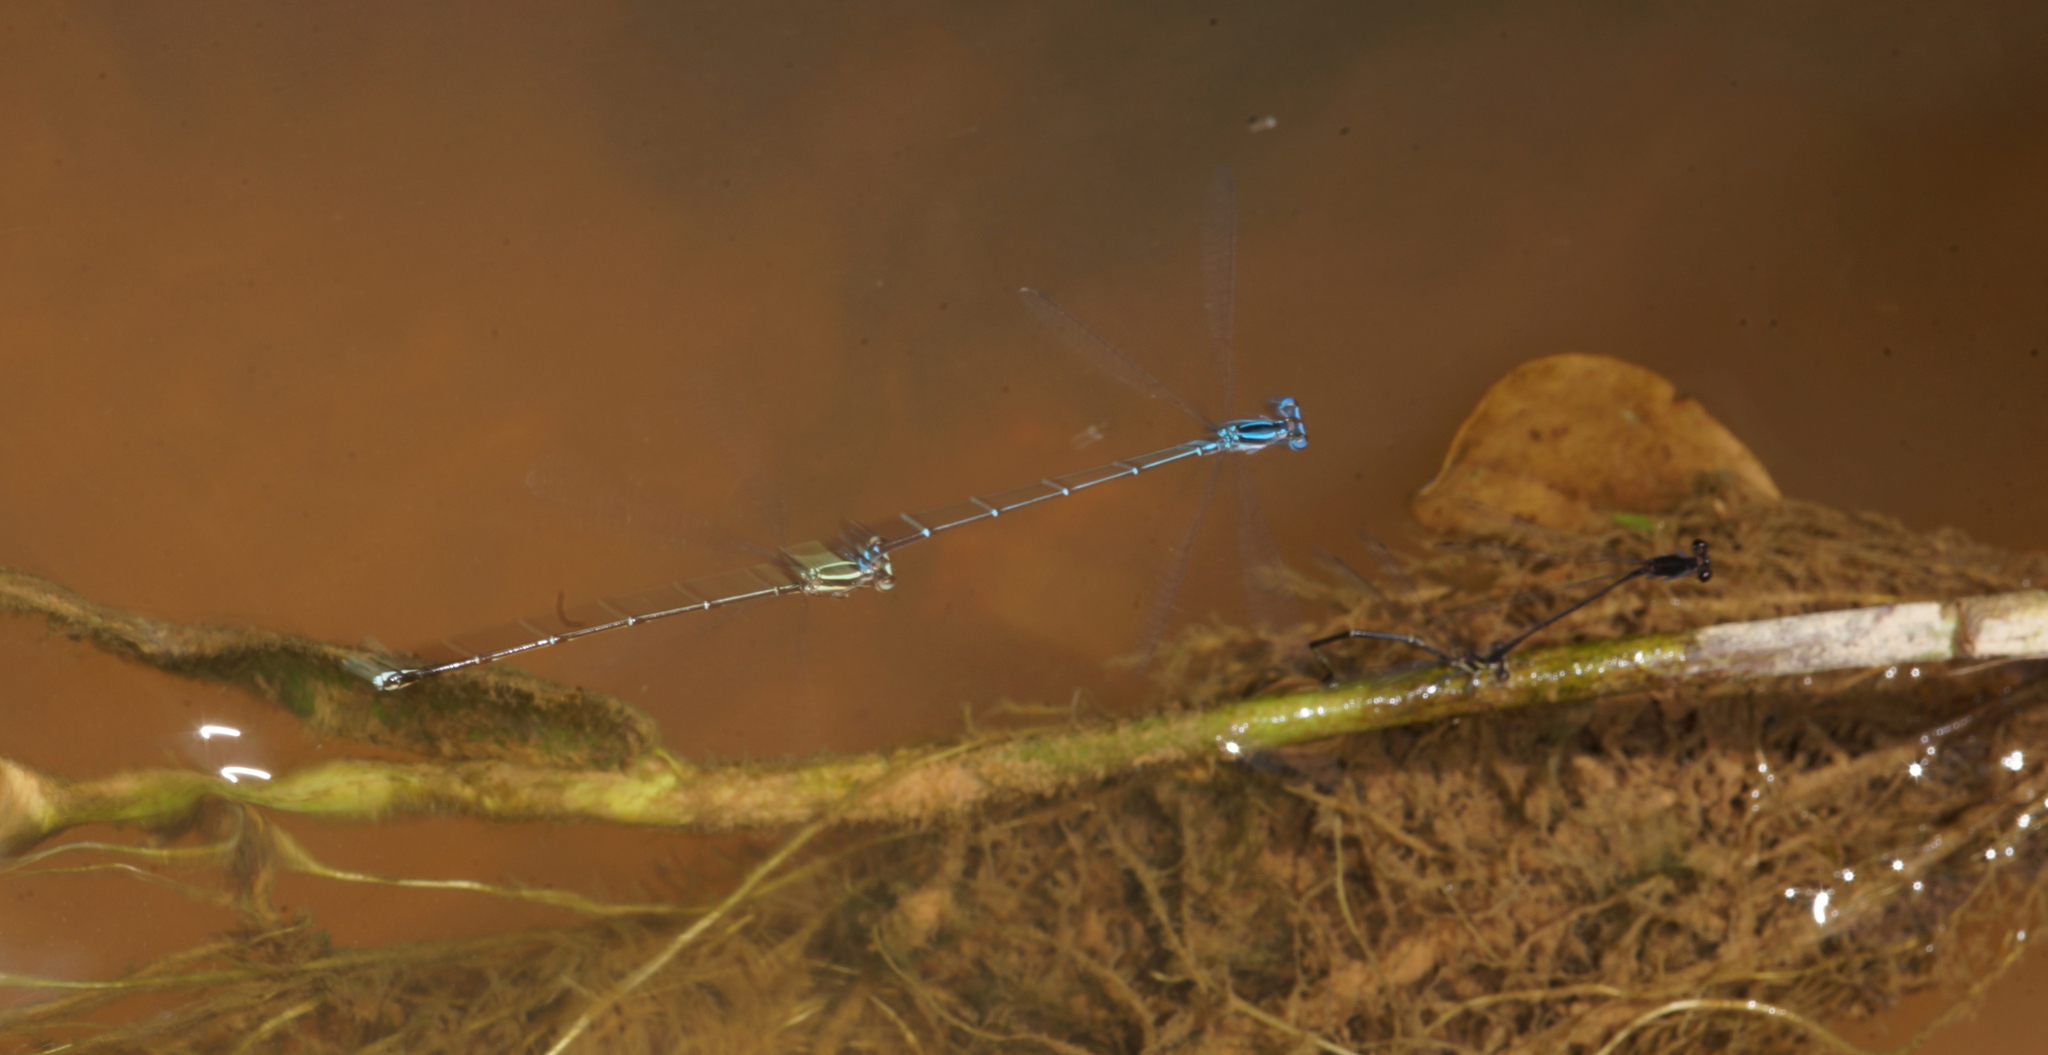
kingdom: Animalia
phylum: Arthropoda
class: Insecta
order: Odonata
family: Platycnemididae
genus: Prodasineura
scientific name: Prodasineura autumnalis
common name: Black threadtail
